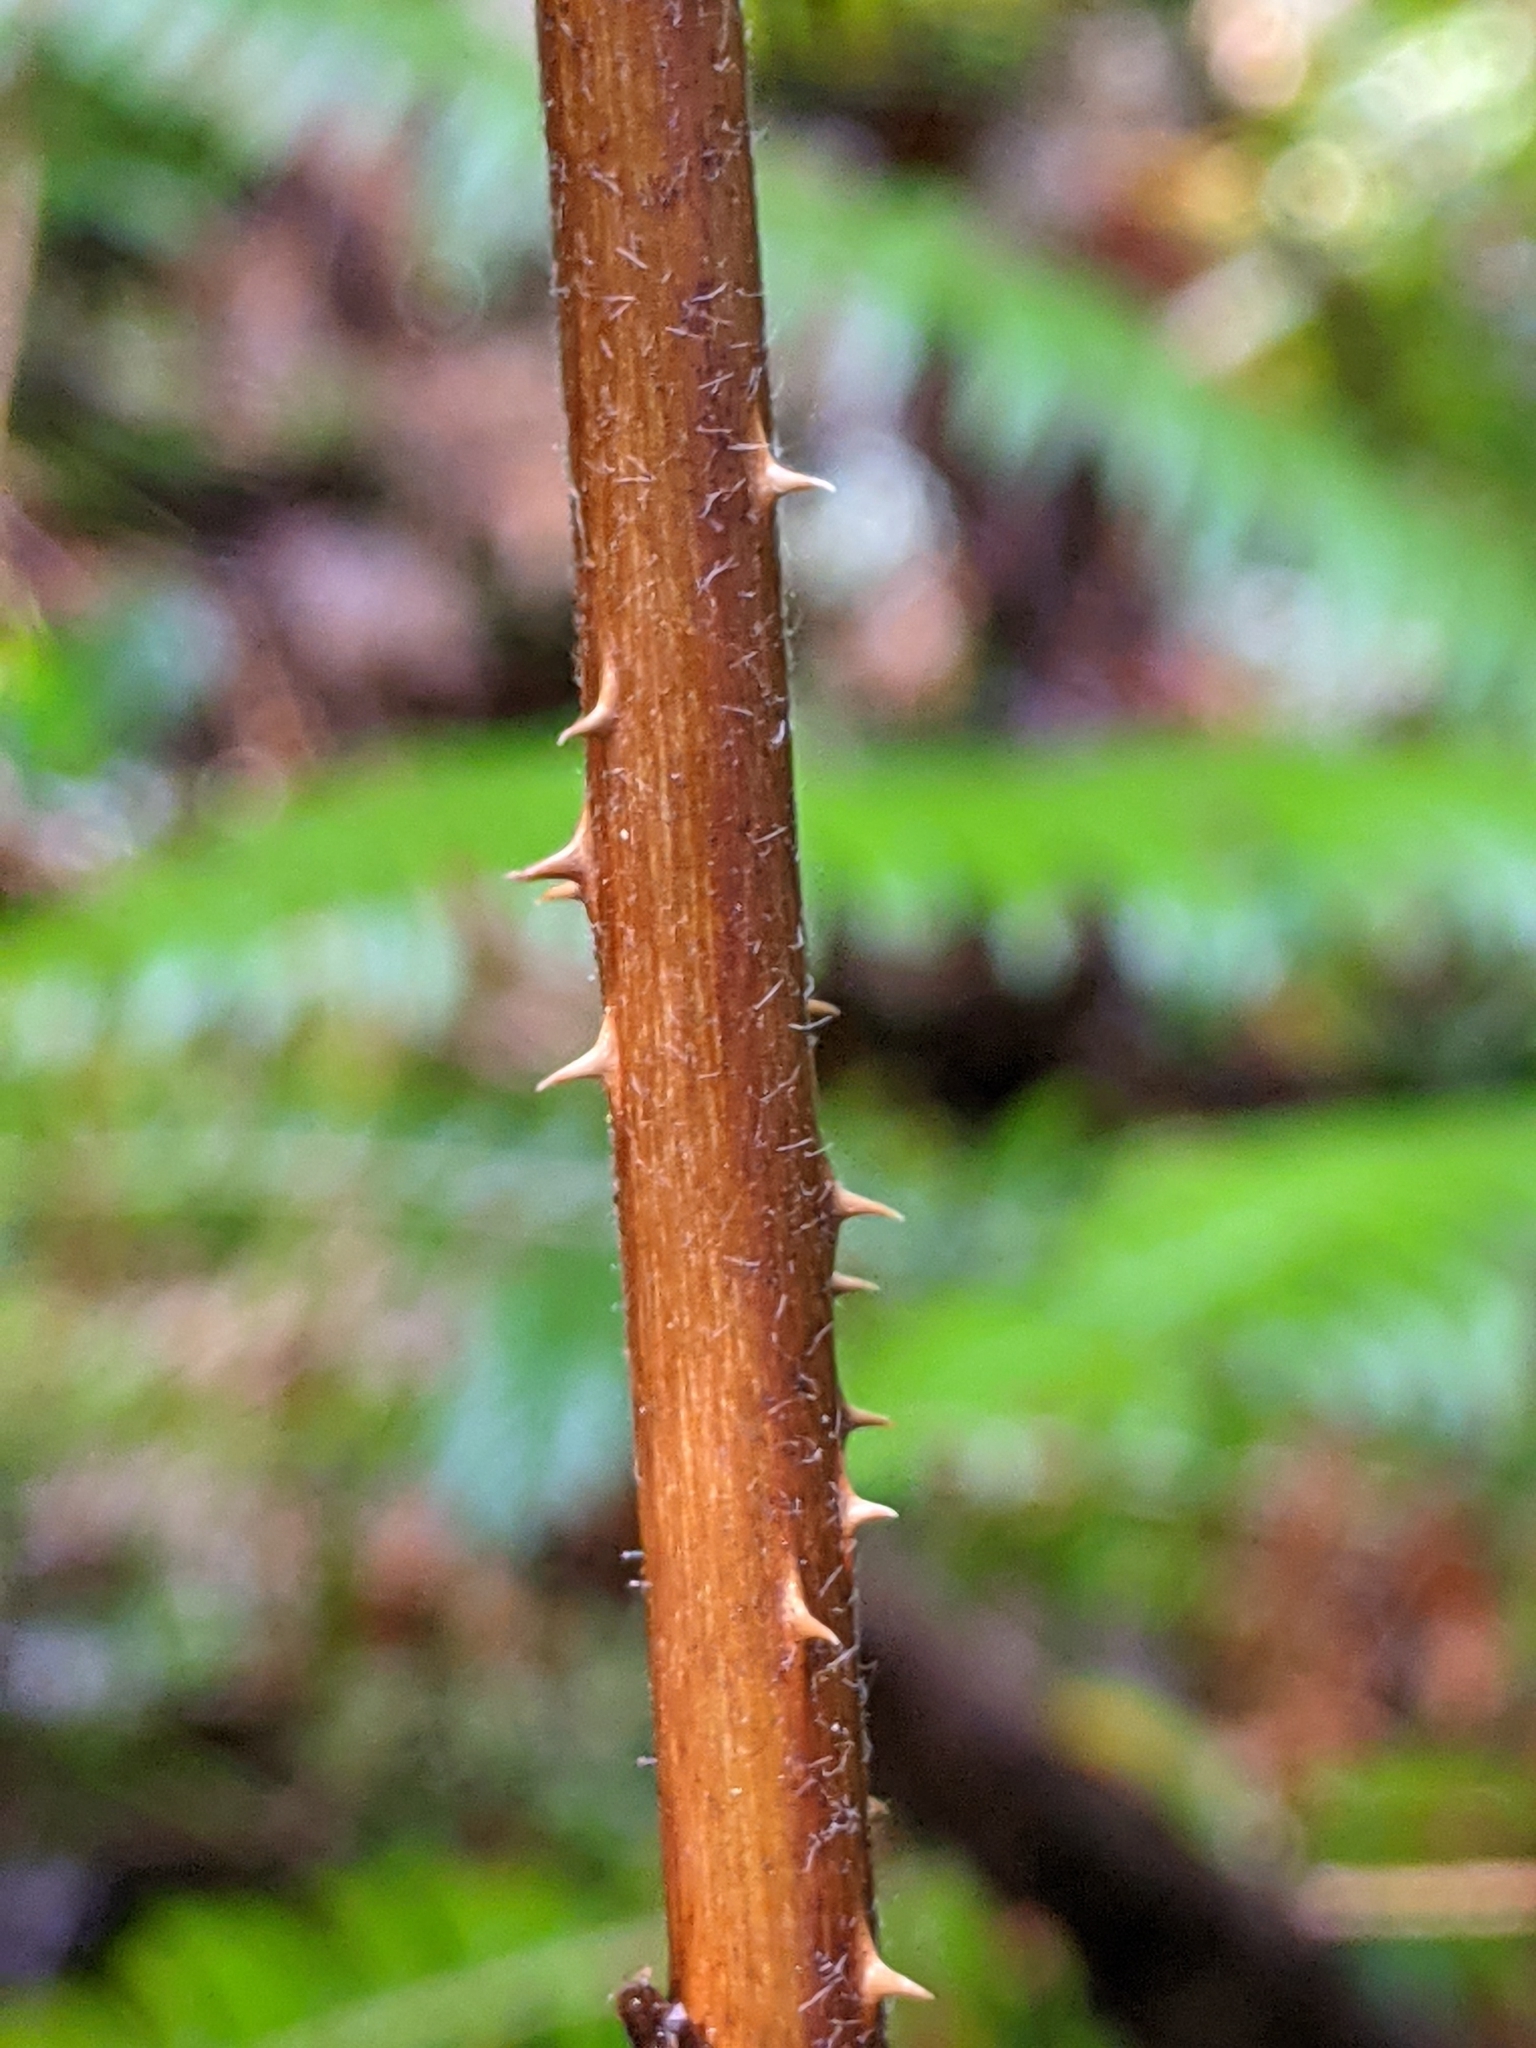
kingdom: Plantae
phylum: Tracheophyta
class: Magnoliopsida
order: Rosales
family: Rosaceae
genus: Rubus
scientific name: Rubus spectabilis
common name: Salmonberry
